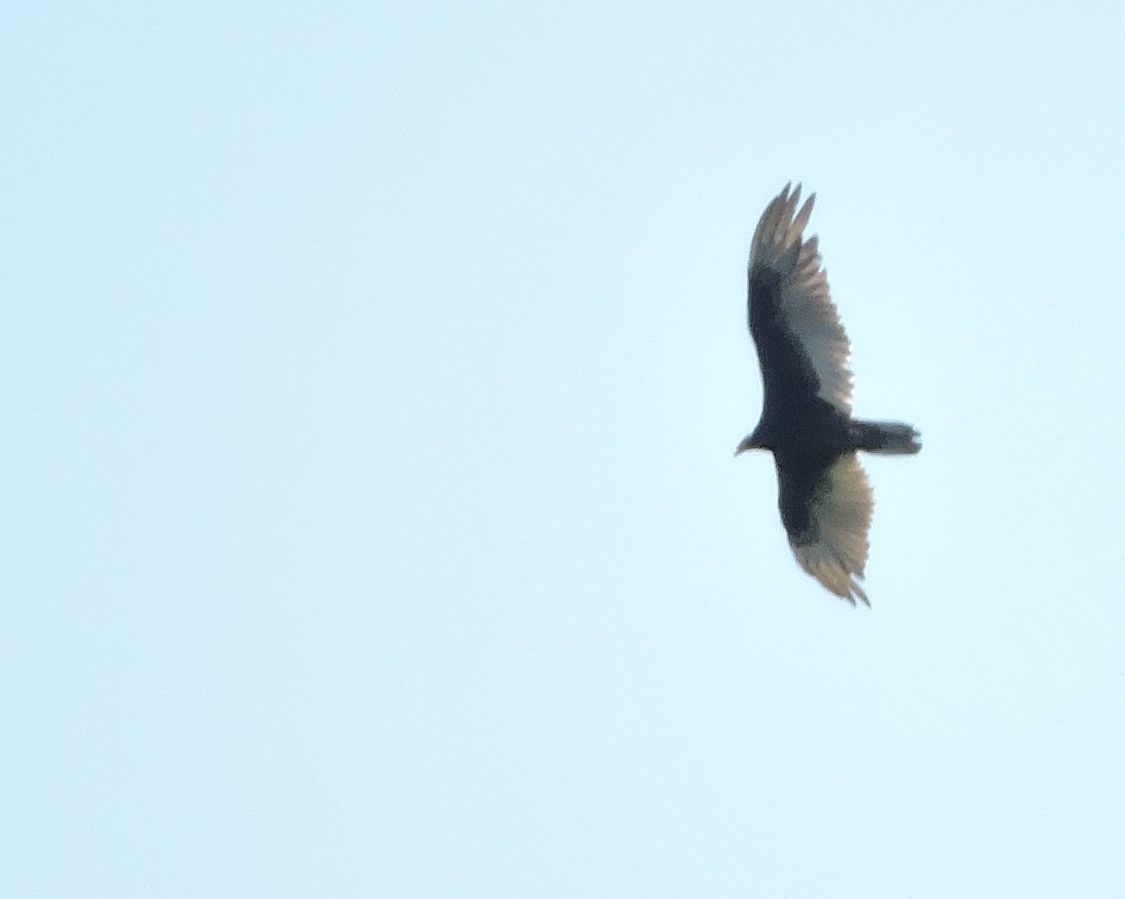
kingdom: Animalia
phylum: Chordata
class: Aves
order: Accipitriformes
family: Cathartidae
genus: Cathartes
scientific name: Cathartes aura
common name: Turkey vulture
